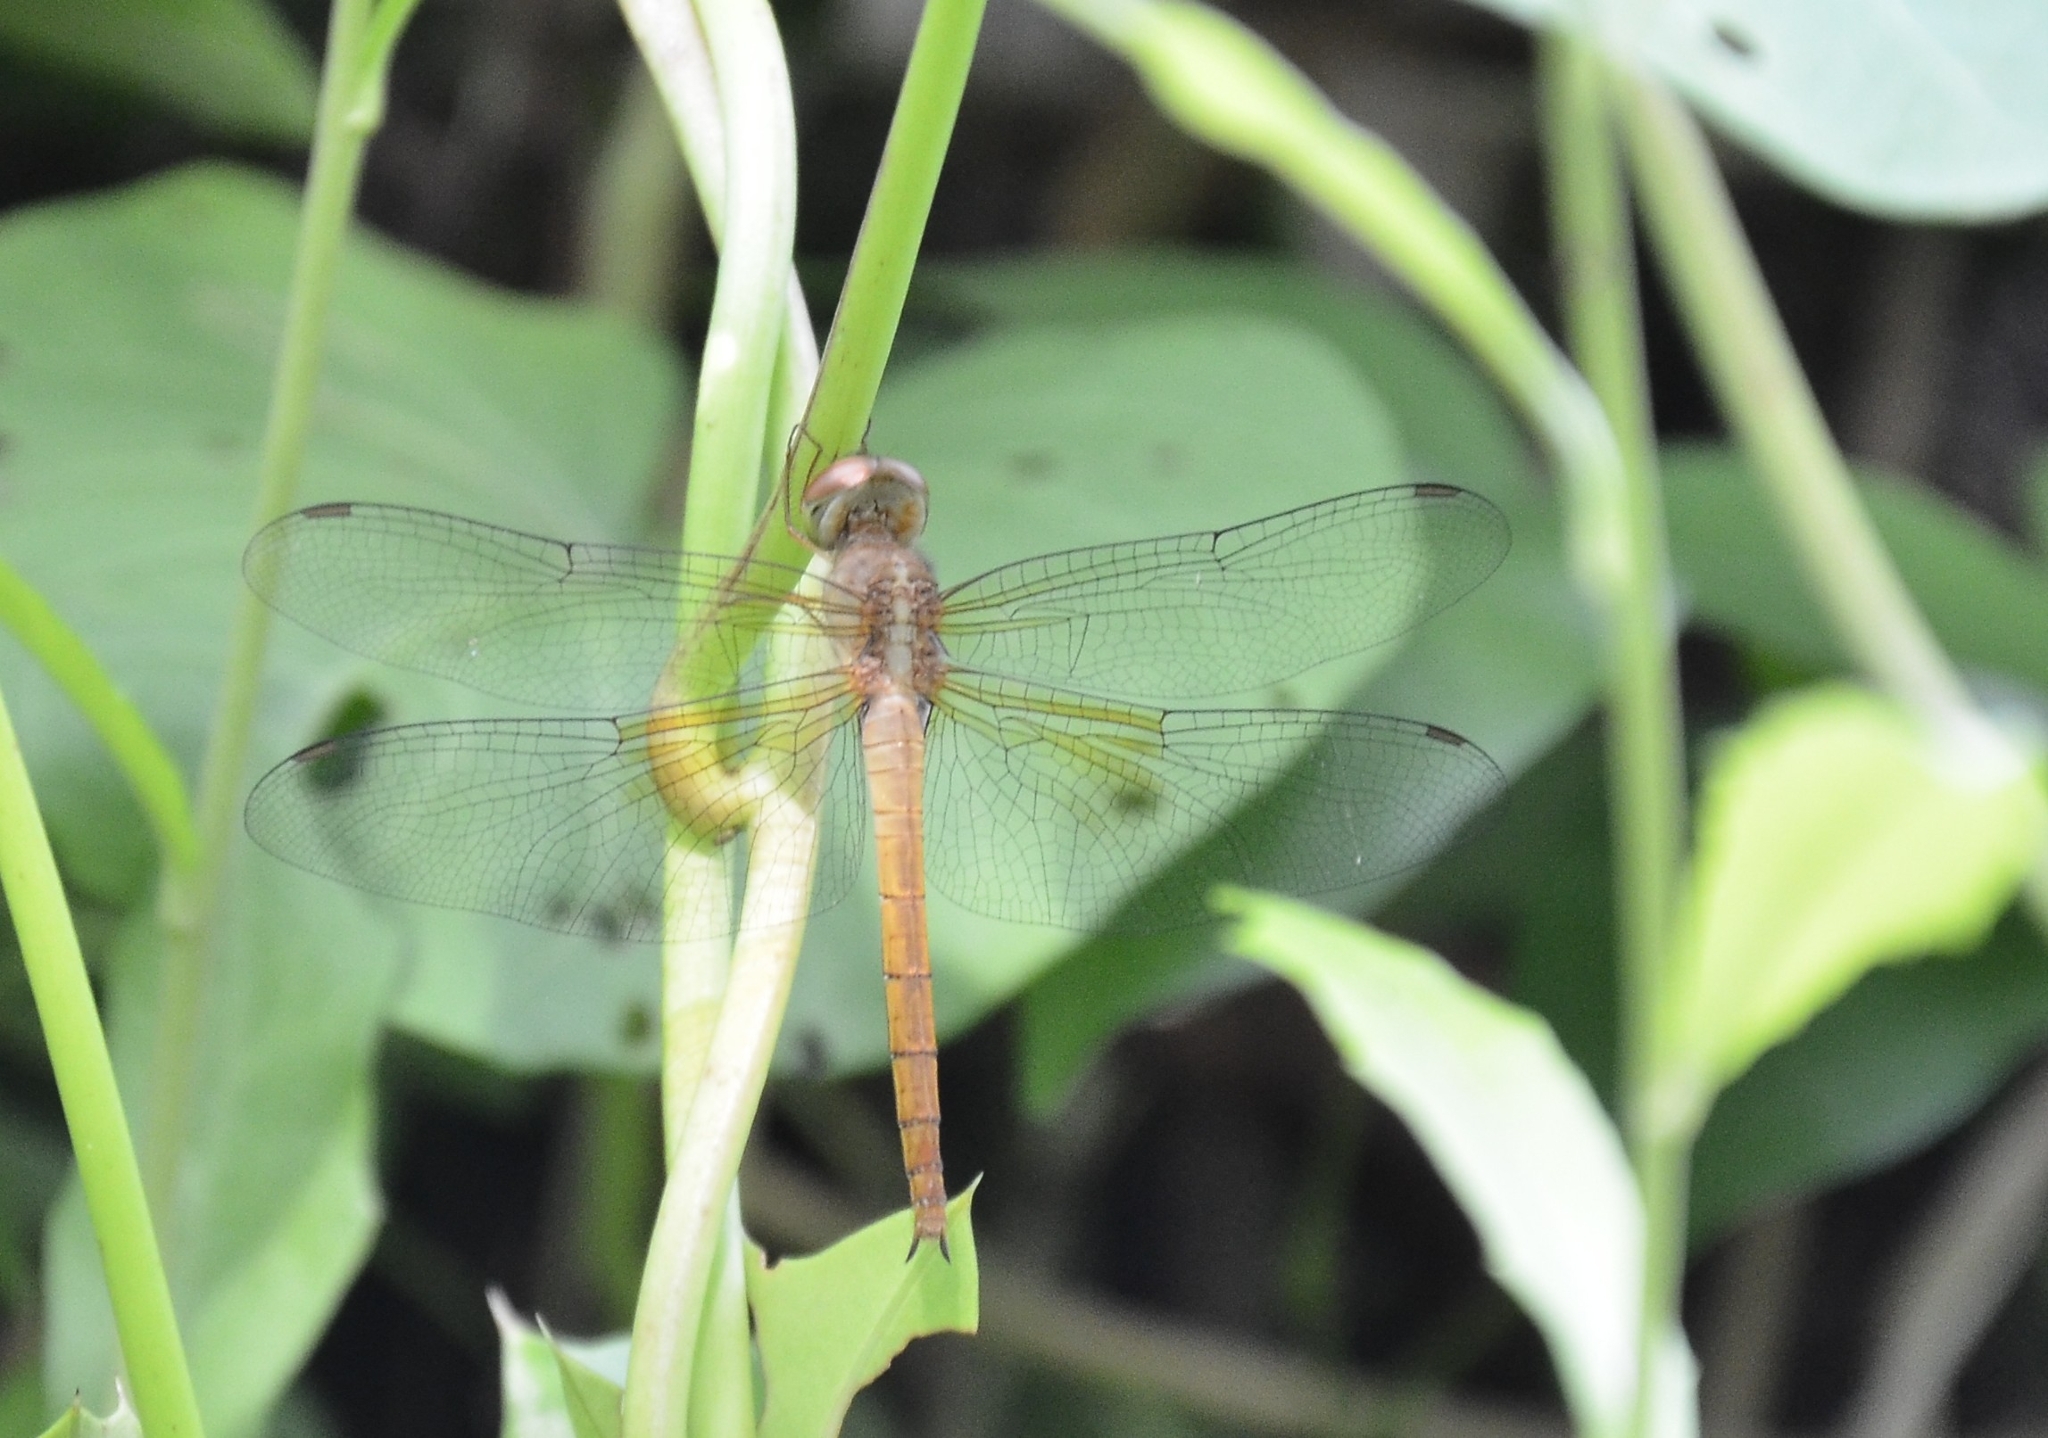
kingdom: Animalia
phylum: Arthropoda
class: Insecta
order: Odonata
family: Libellulidae
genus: Tholymis
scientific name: Tholymis tillarga
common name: Coral-tailed cloud wing
